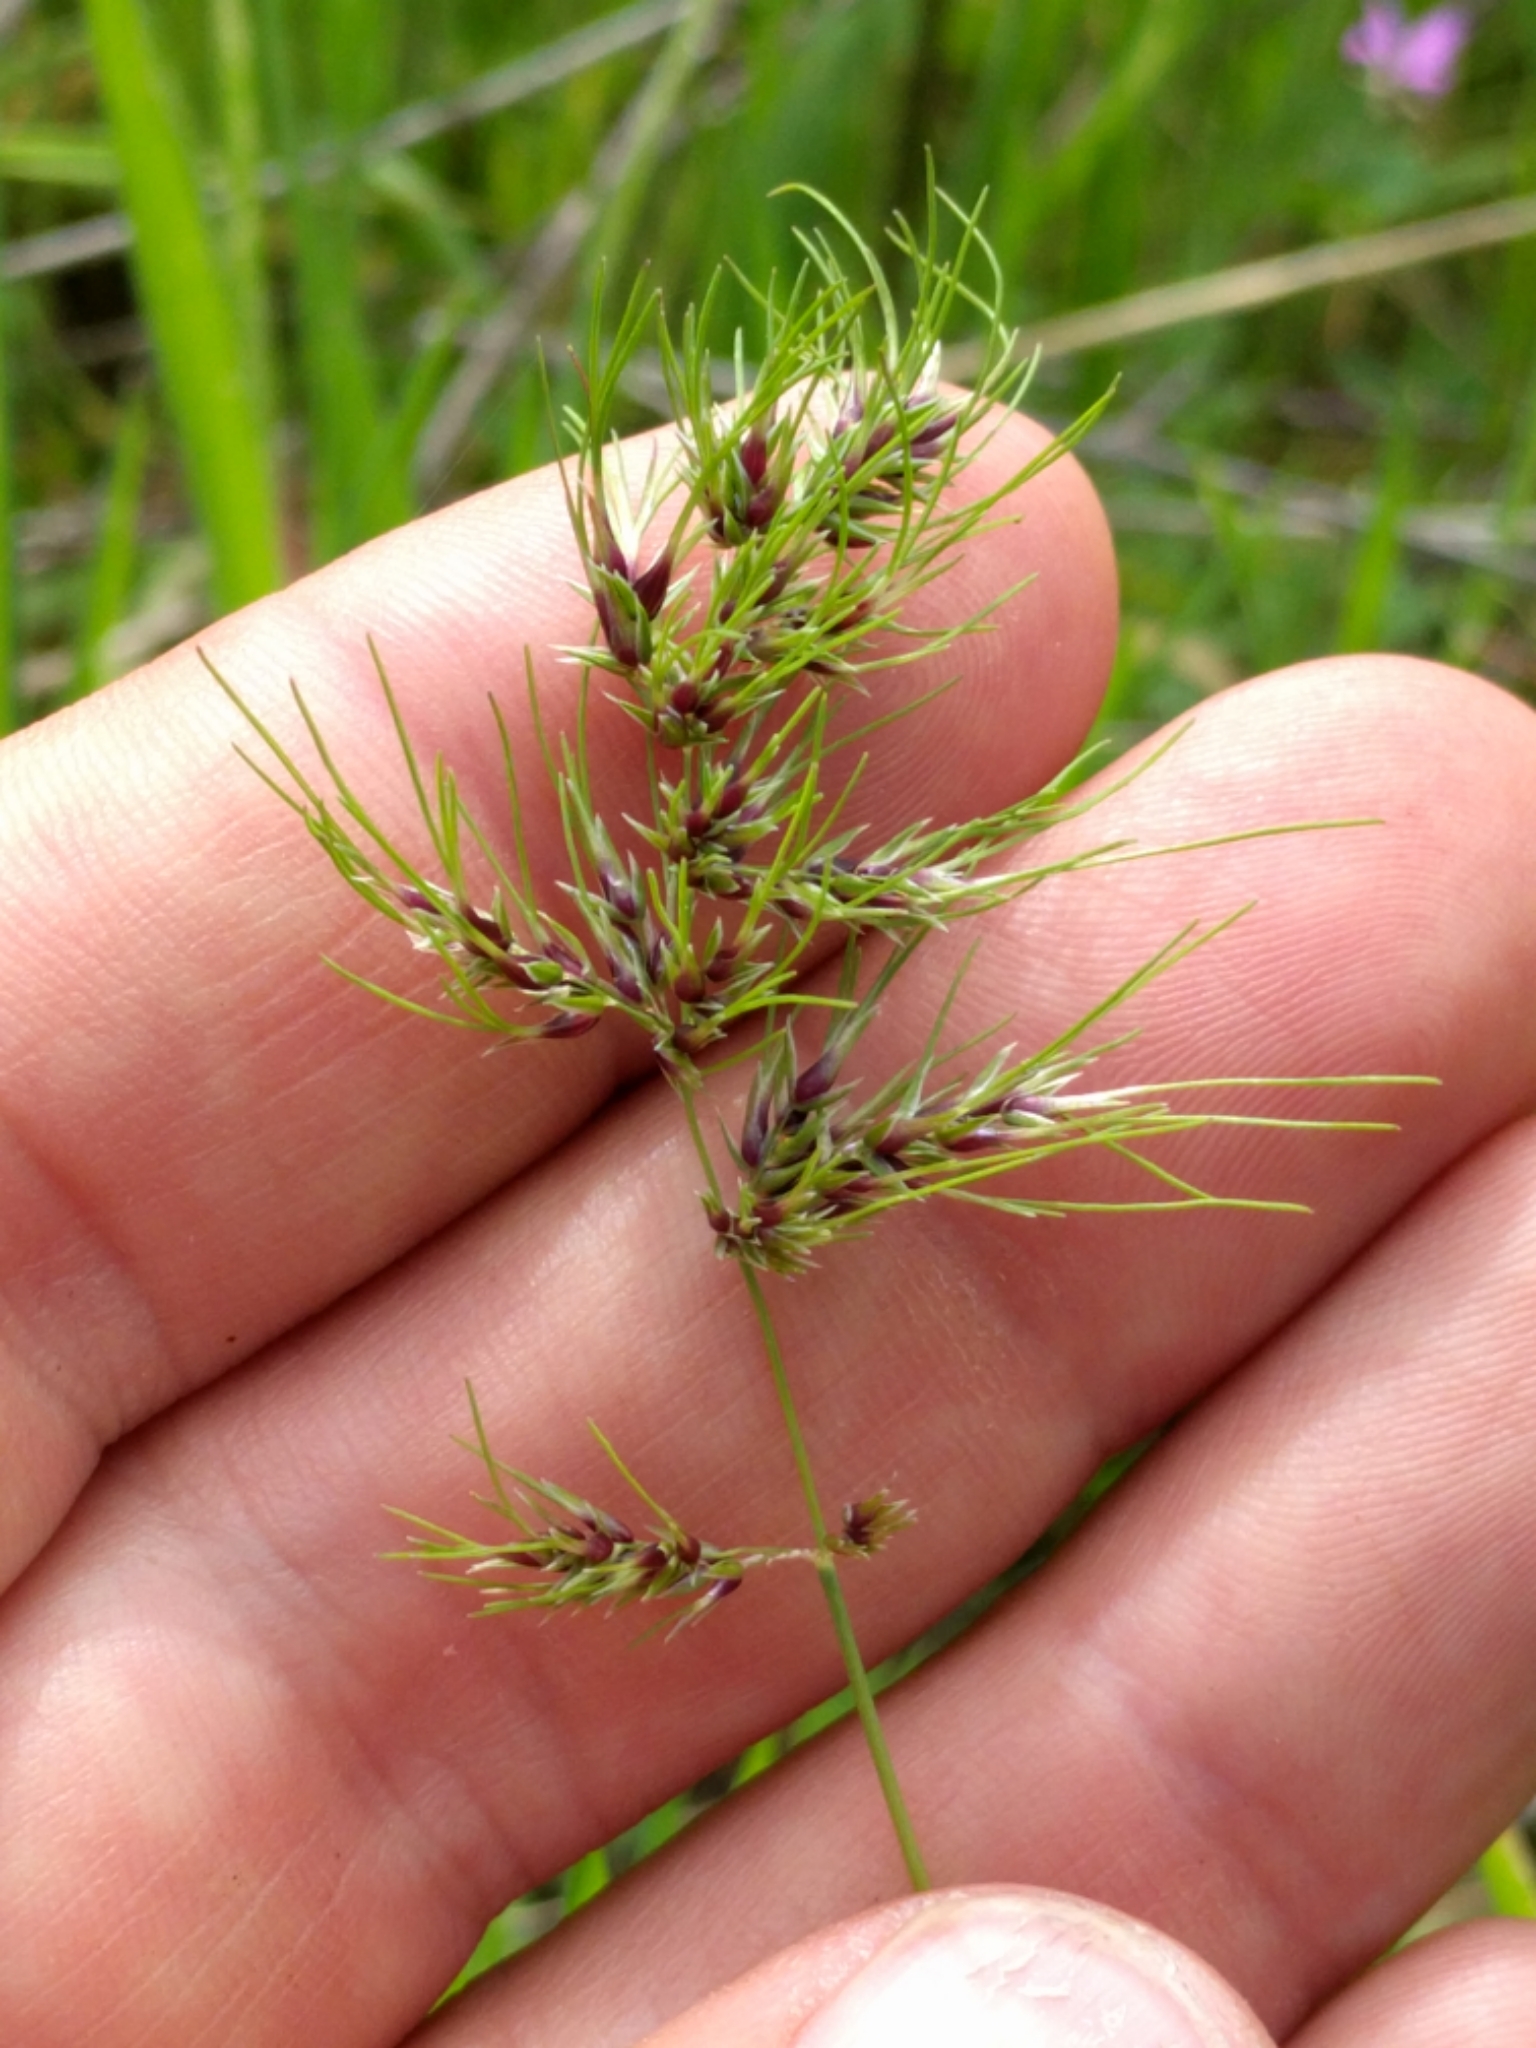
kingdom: Plantae
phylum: Tracheophyta
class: Liliopsida
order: Poales
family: Poaceae
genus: Poa
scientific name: Poa bulbosa
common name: Bulbous bluegrass
